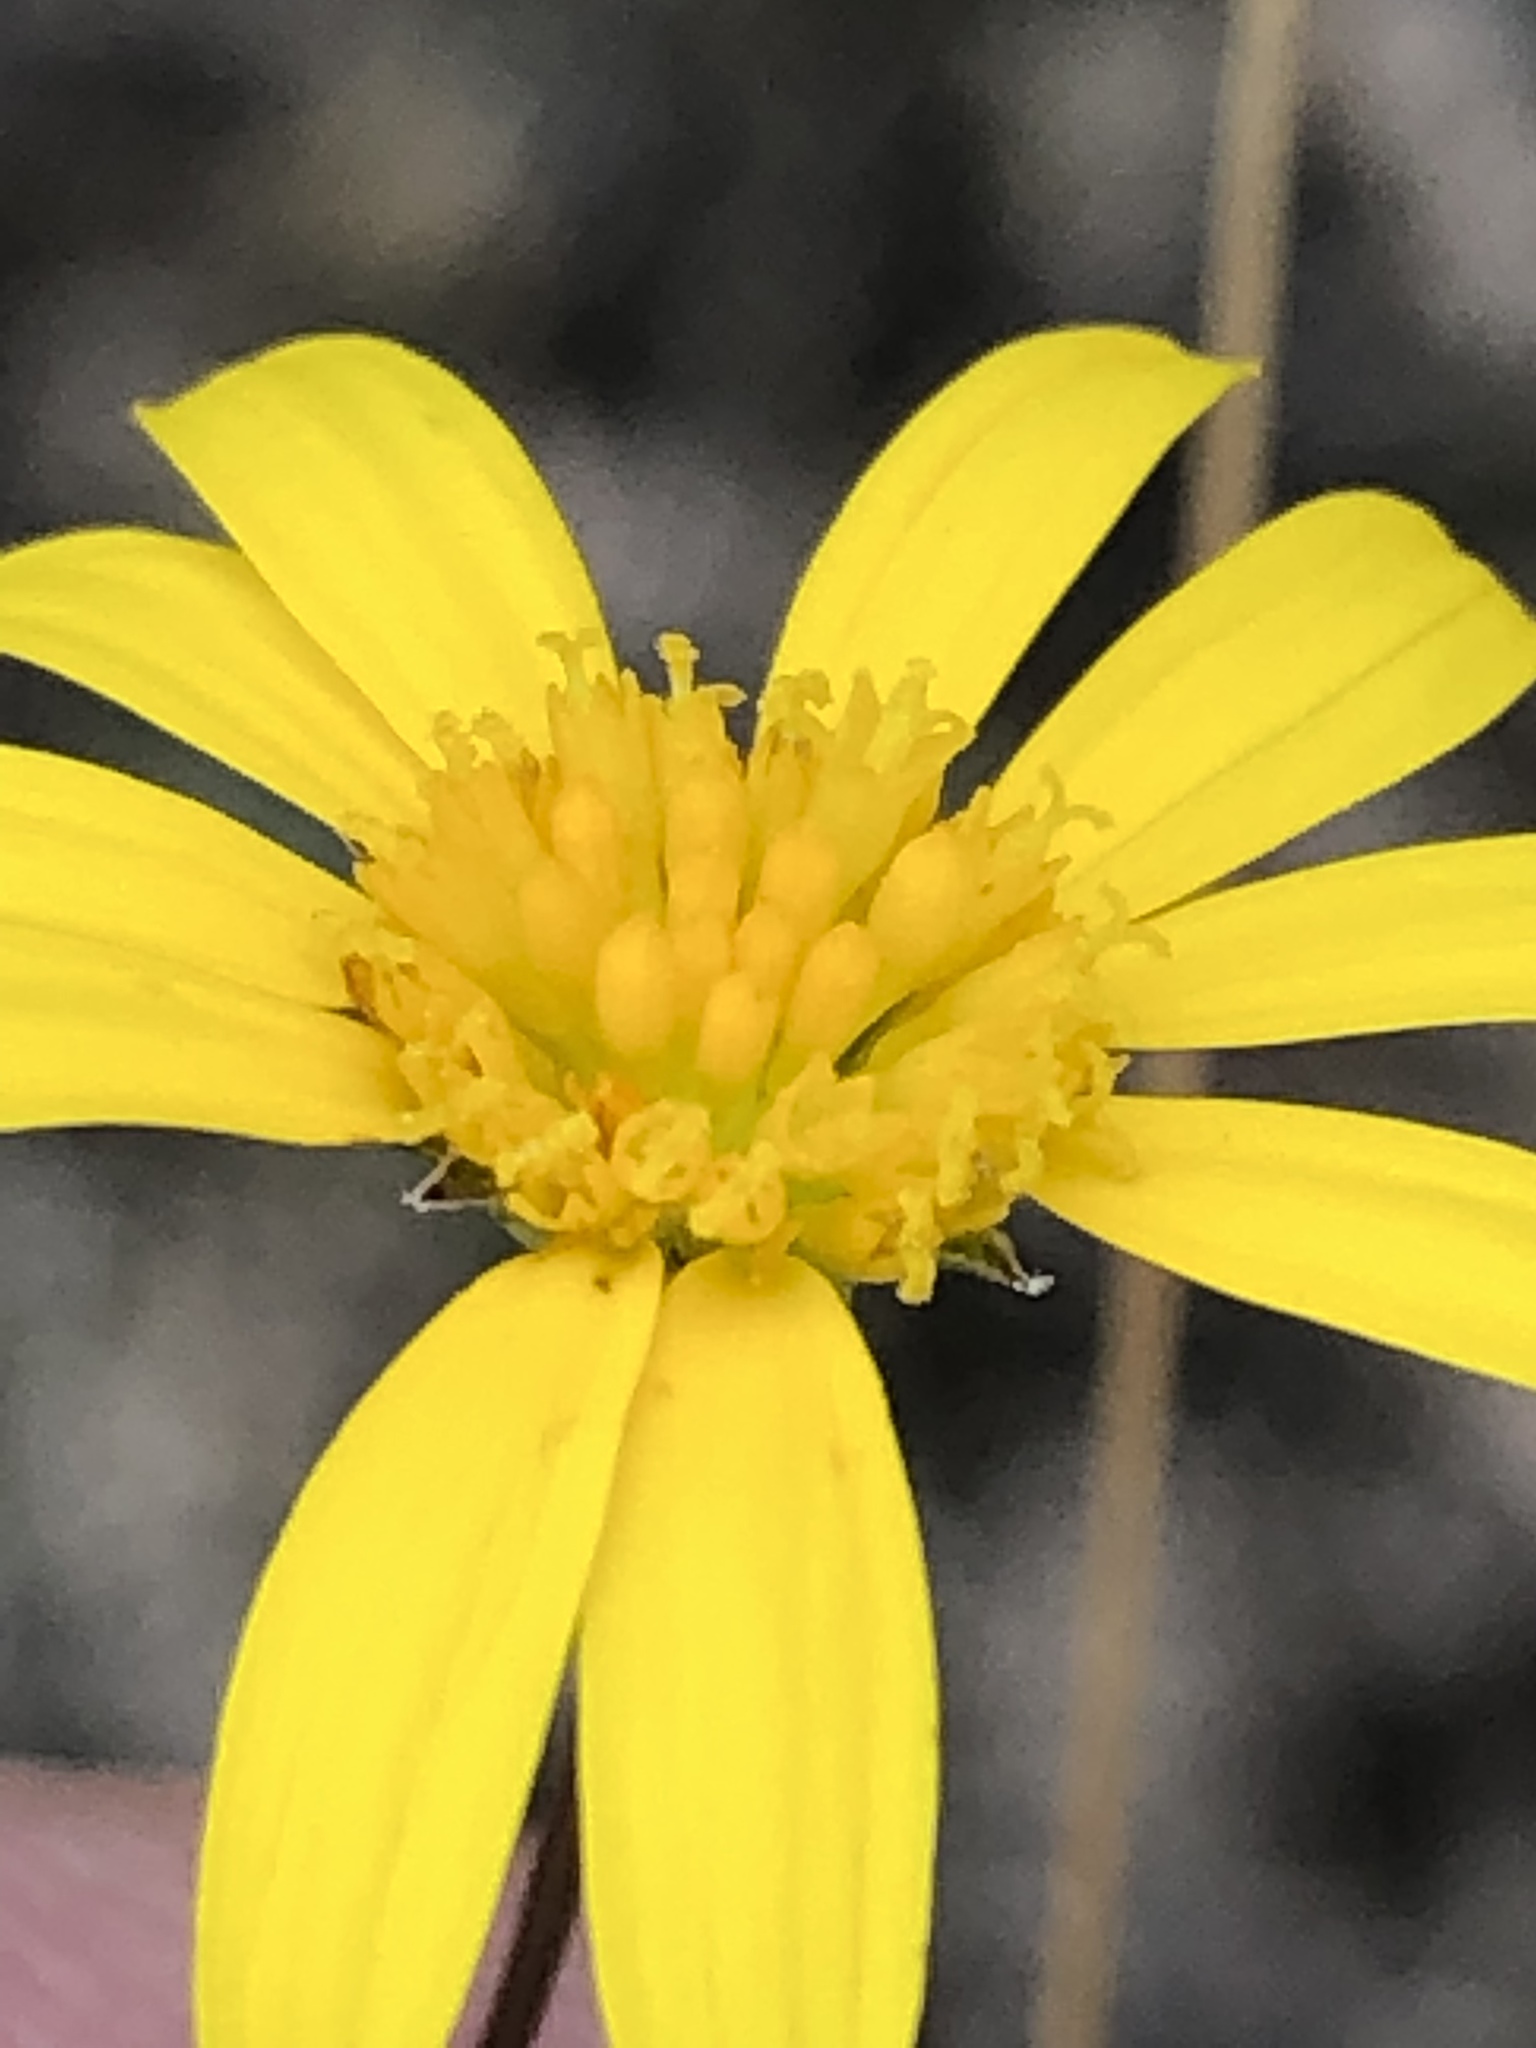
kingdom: Plantae
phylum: Tracheophyta
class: Magnoliopsida
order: Asterales
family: Asteraceae
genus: Euryops
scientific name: Euryops munitus
